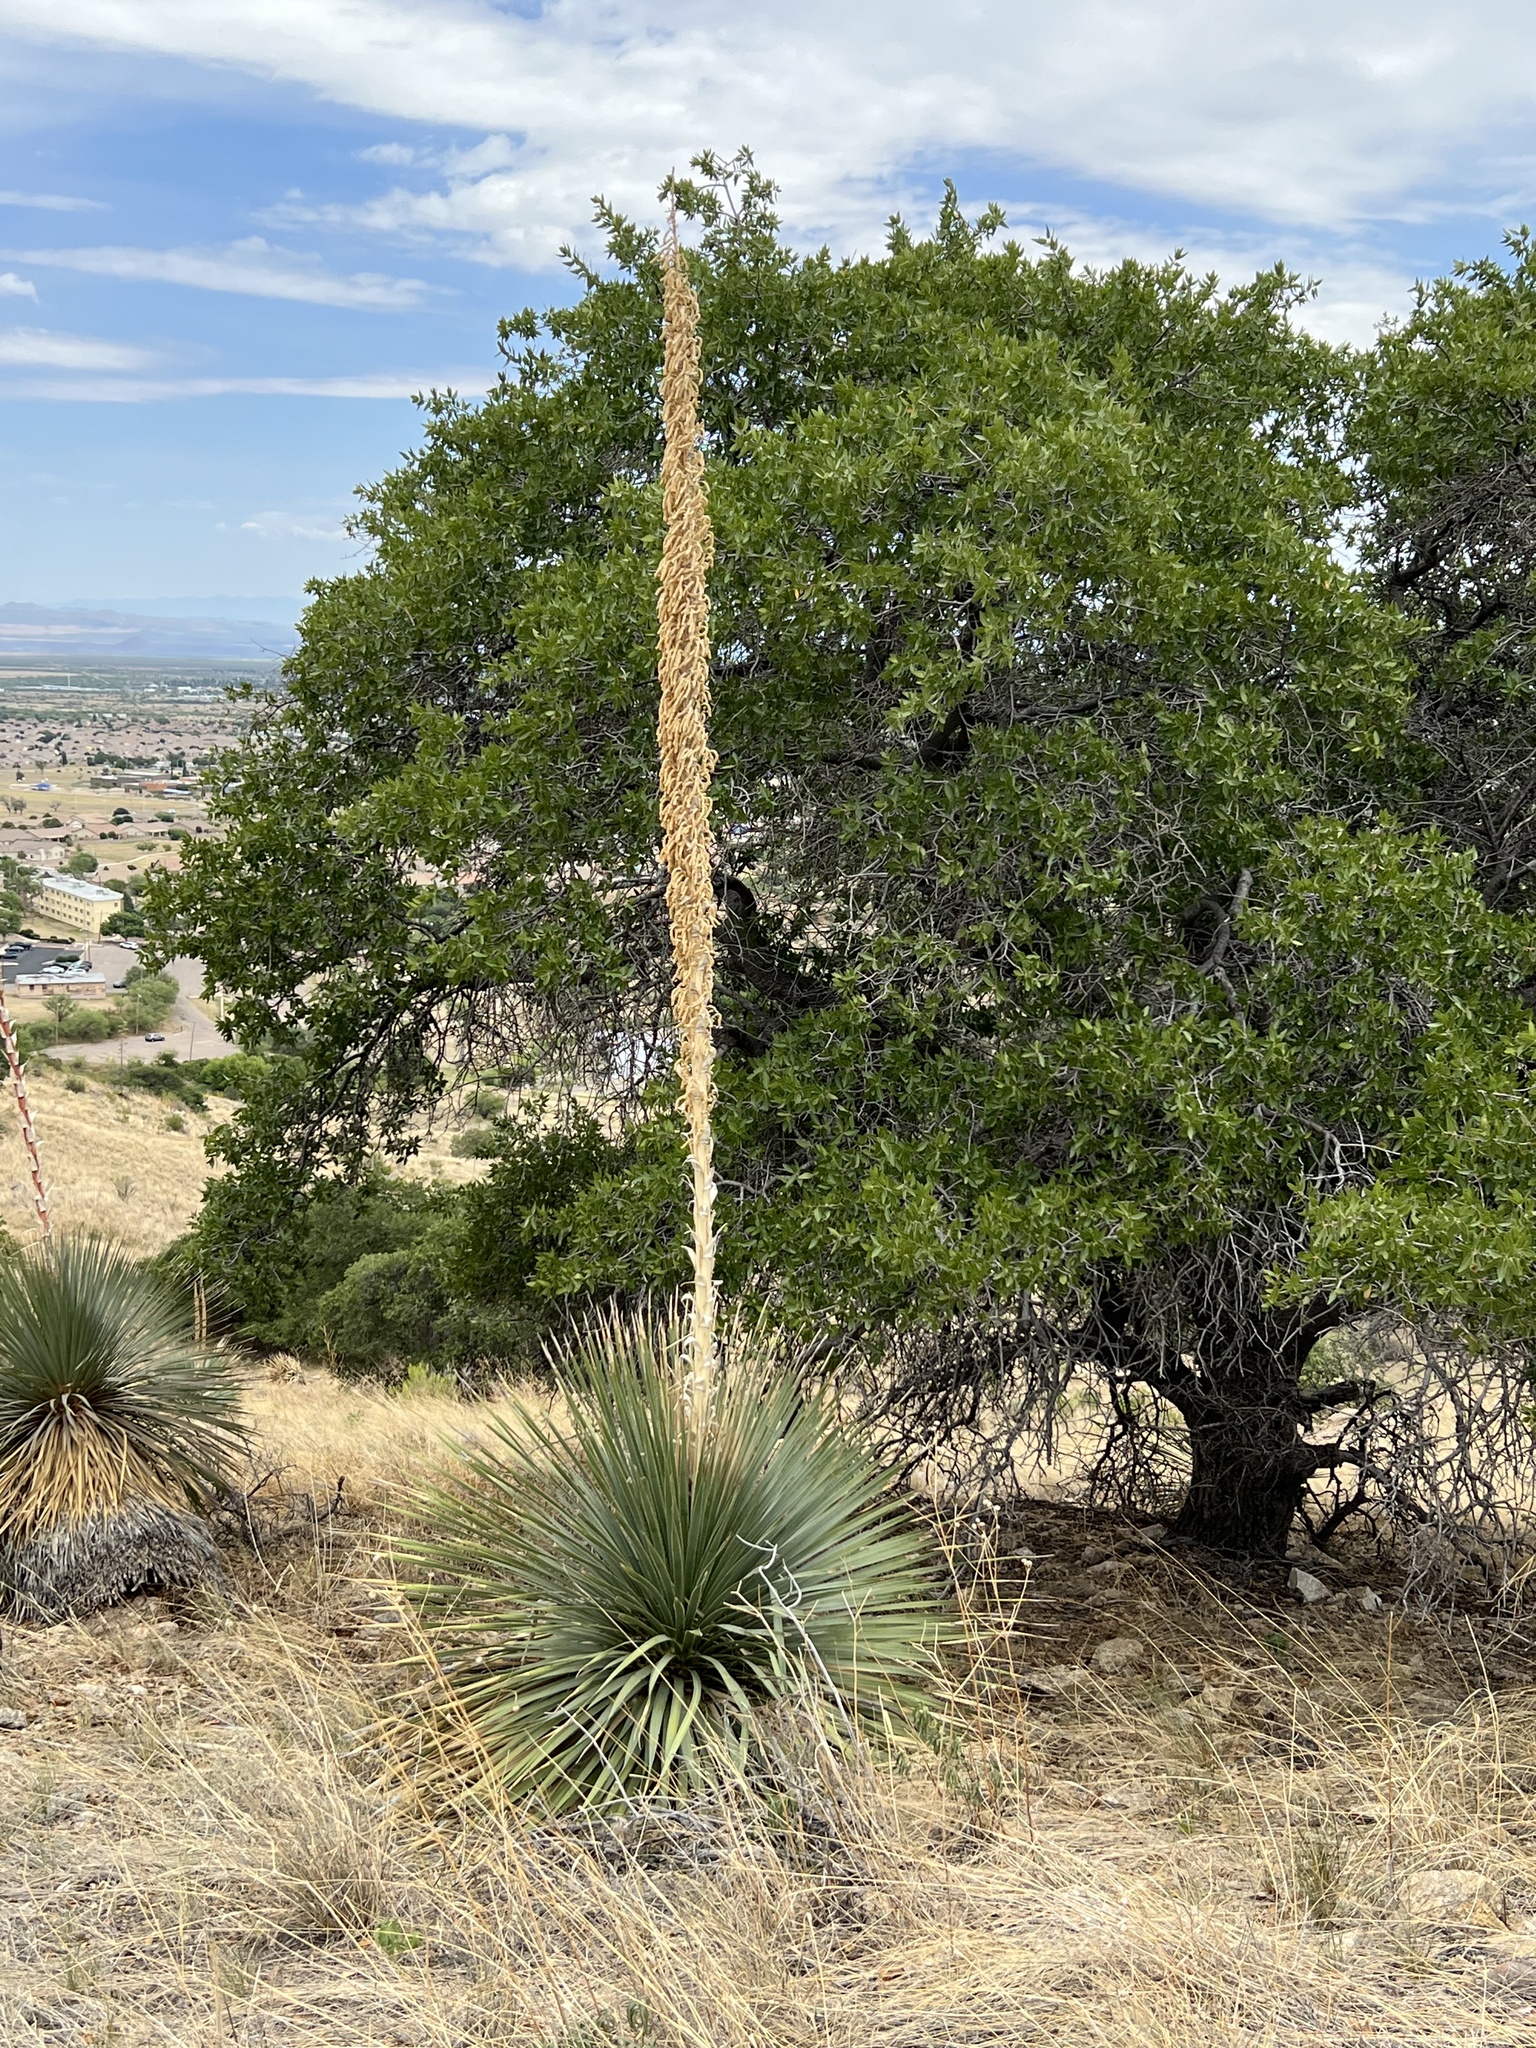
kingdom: Plantae
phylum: Tracheophyta
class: Liliopsida
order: Asparagales
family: Asparagaceae
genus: Dasylirion
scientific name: Dasylirion wheeleri
